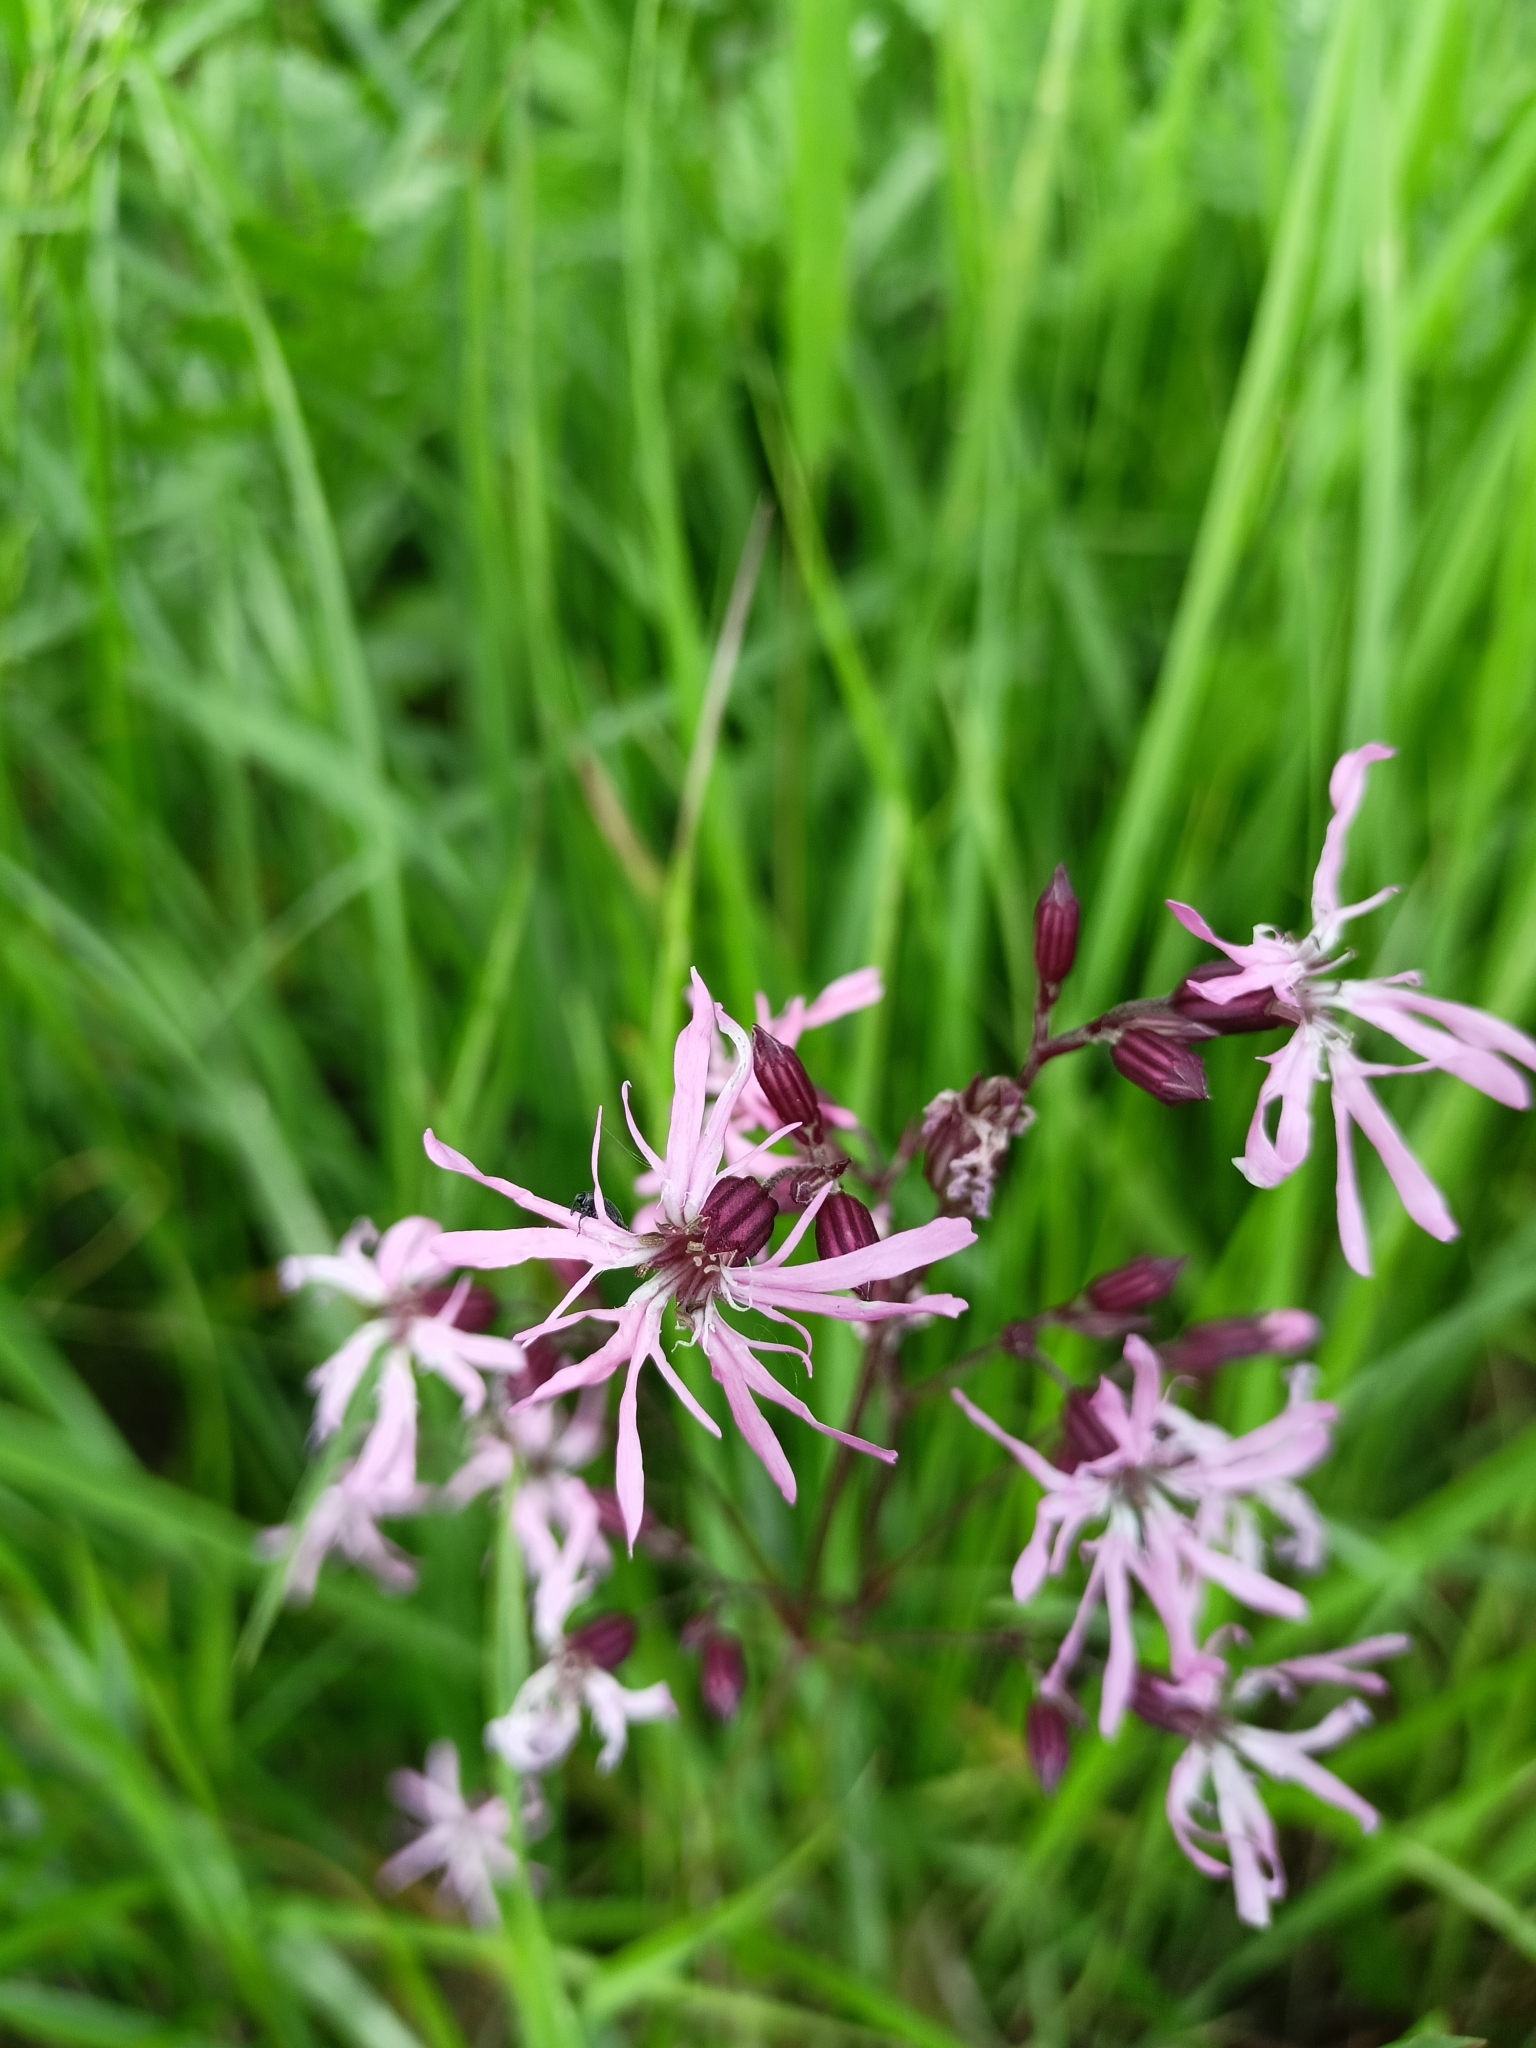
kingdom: Plantae
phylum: Tracheophyta
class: Magnoliopsida
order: Caryophyllales
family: Caryophyllaceae
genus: Silene
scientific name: Silene flos-cuculi
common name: Ragged-robin
